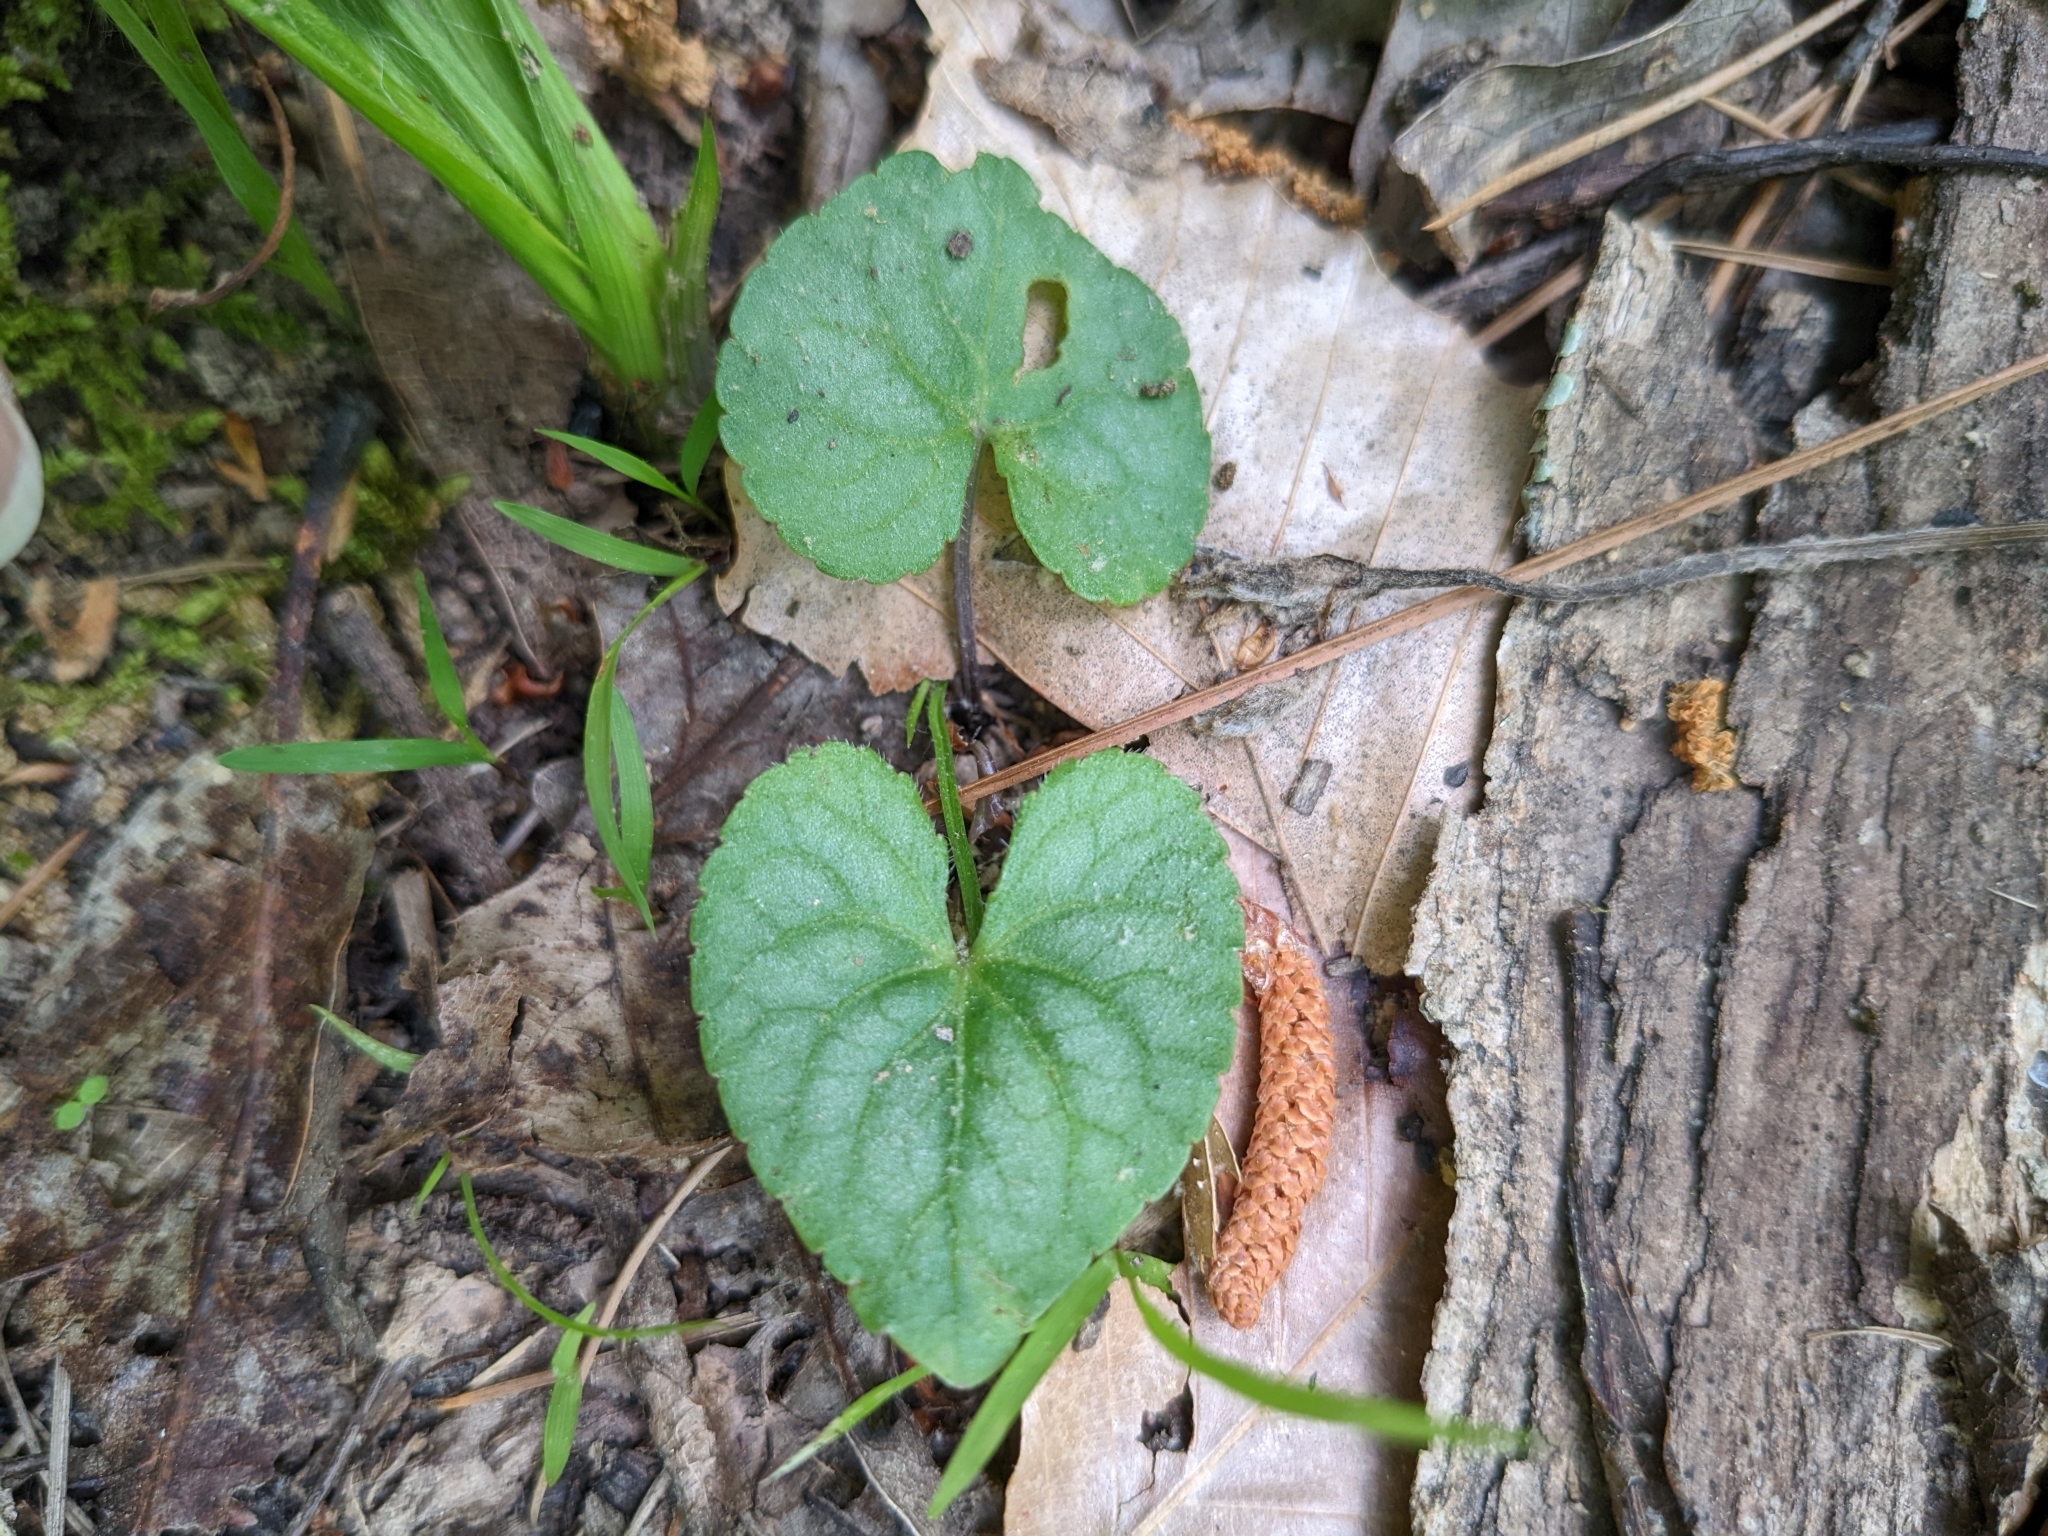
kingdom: Plantae
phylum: Tracheophyta
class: Magnoliopsida
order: Malpighiales
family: Violaceae
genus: Viola
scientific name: Viola hirsutula
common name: Southern wood violet
